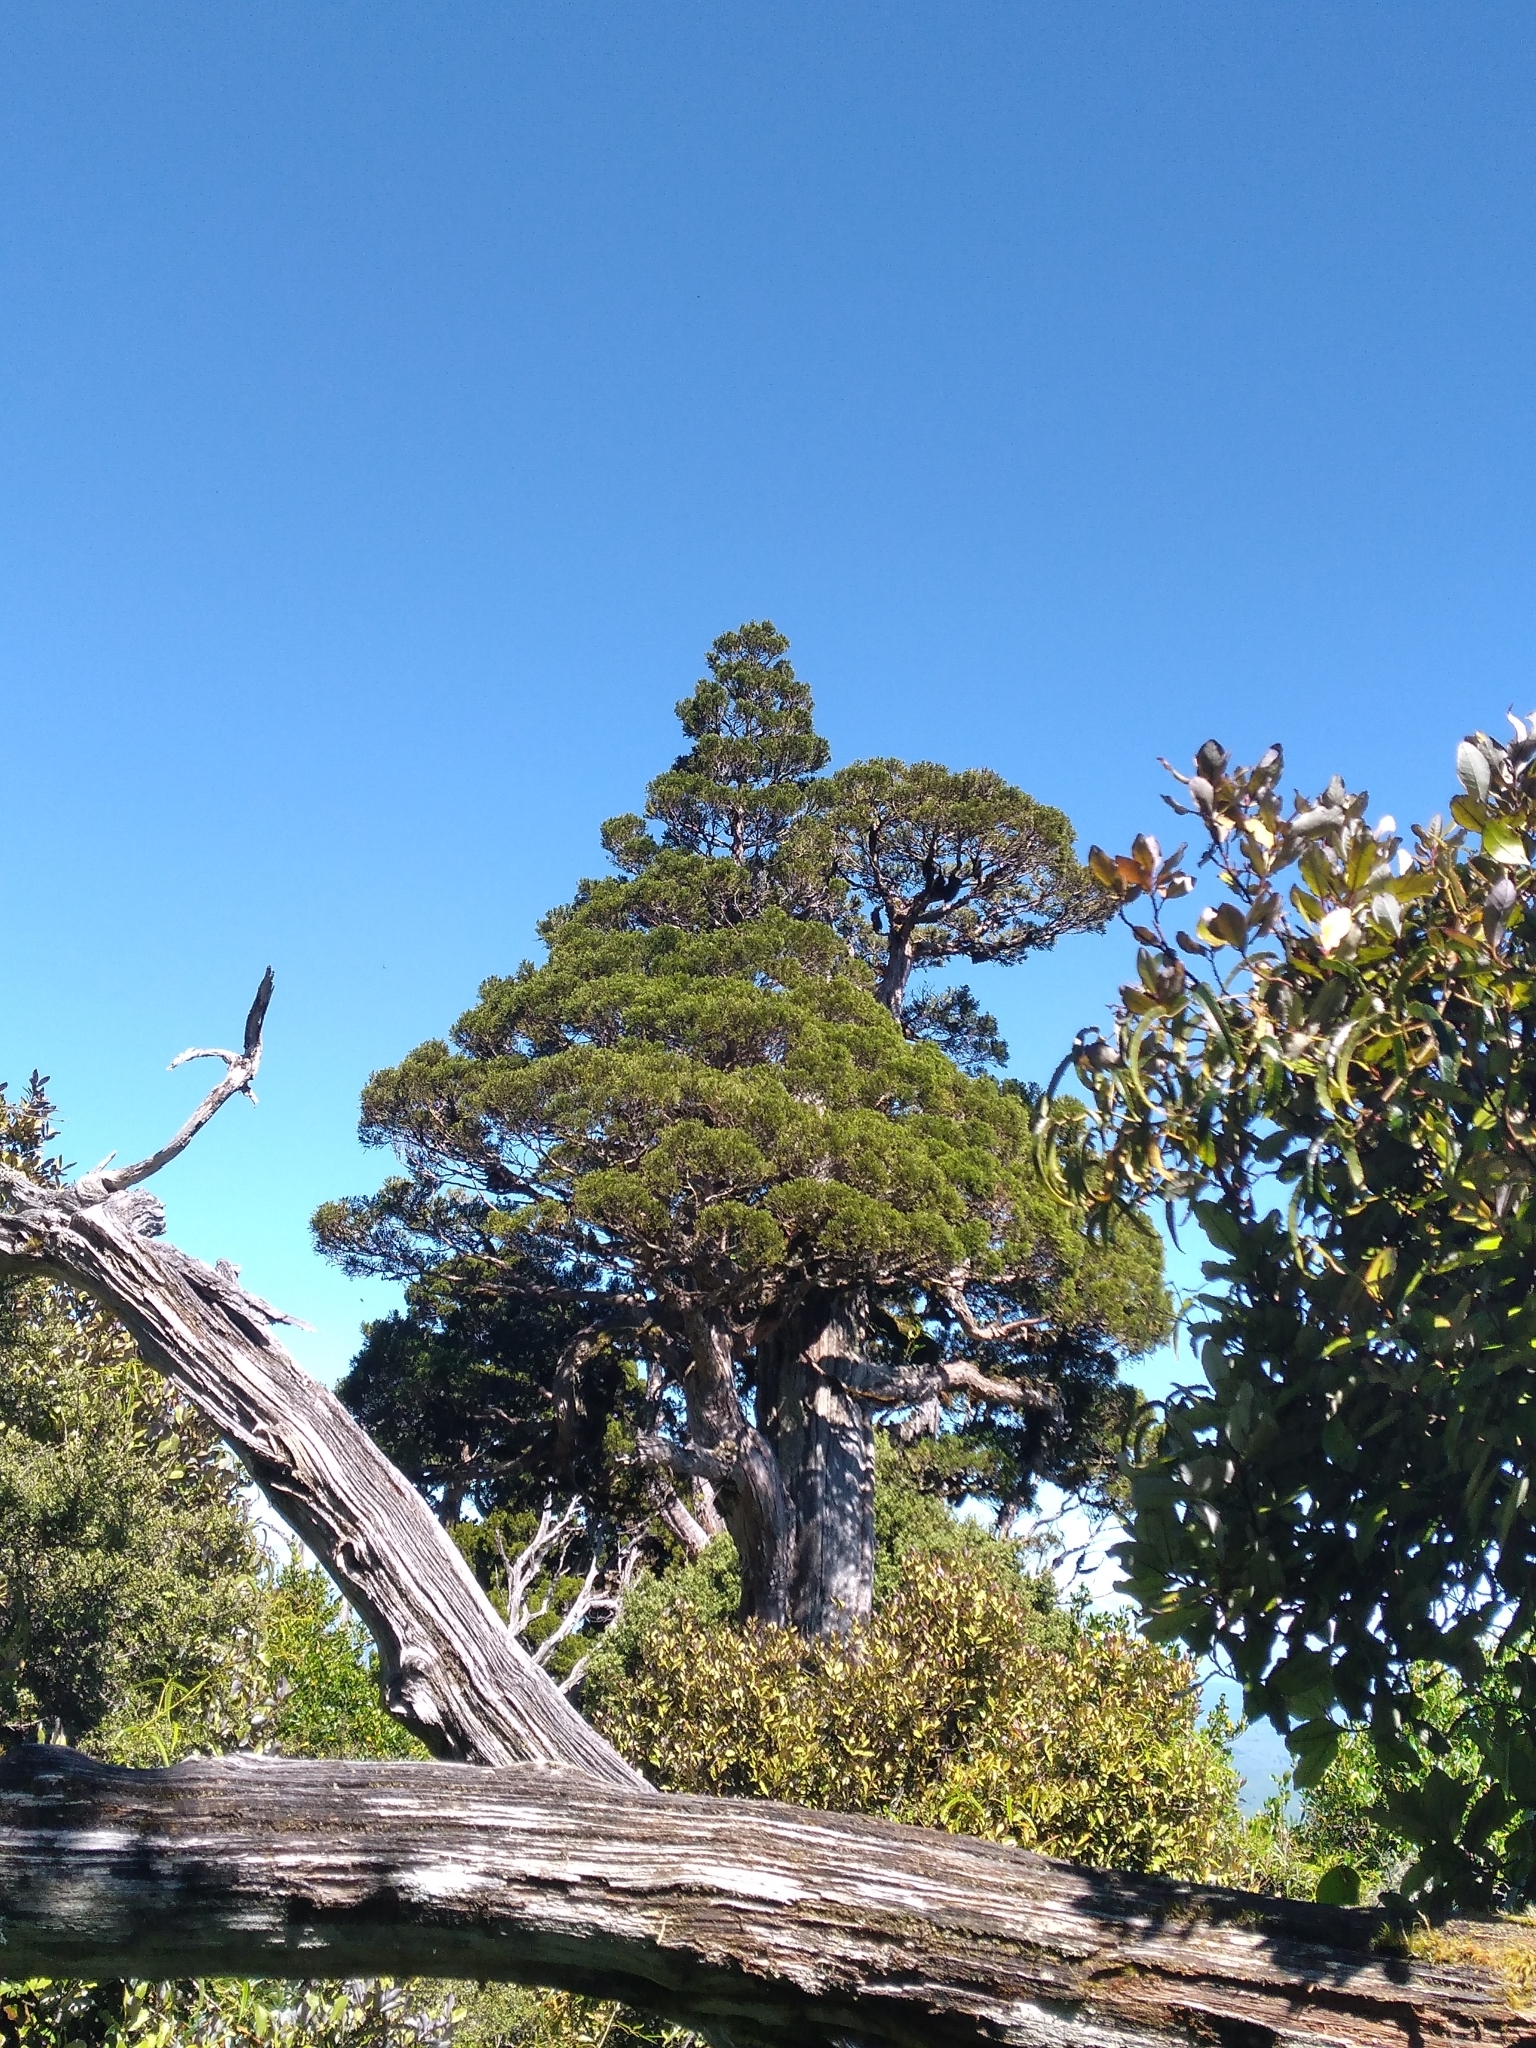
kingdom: Plantae
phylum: Tracheophyta
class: Pinopsida
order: Pinales
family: Cupressaceae
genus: Libocedrus
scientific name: Libocedrus bidwillii
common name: Cedar
